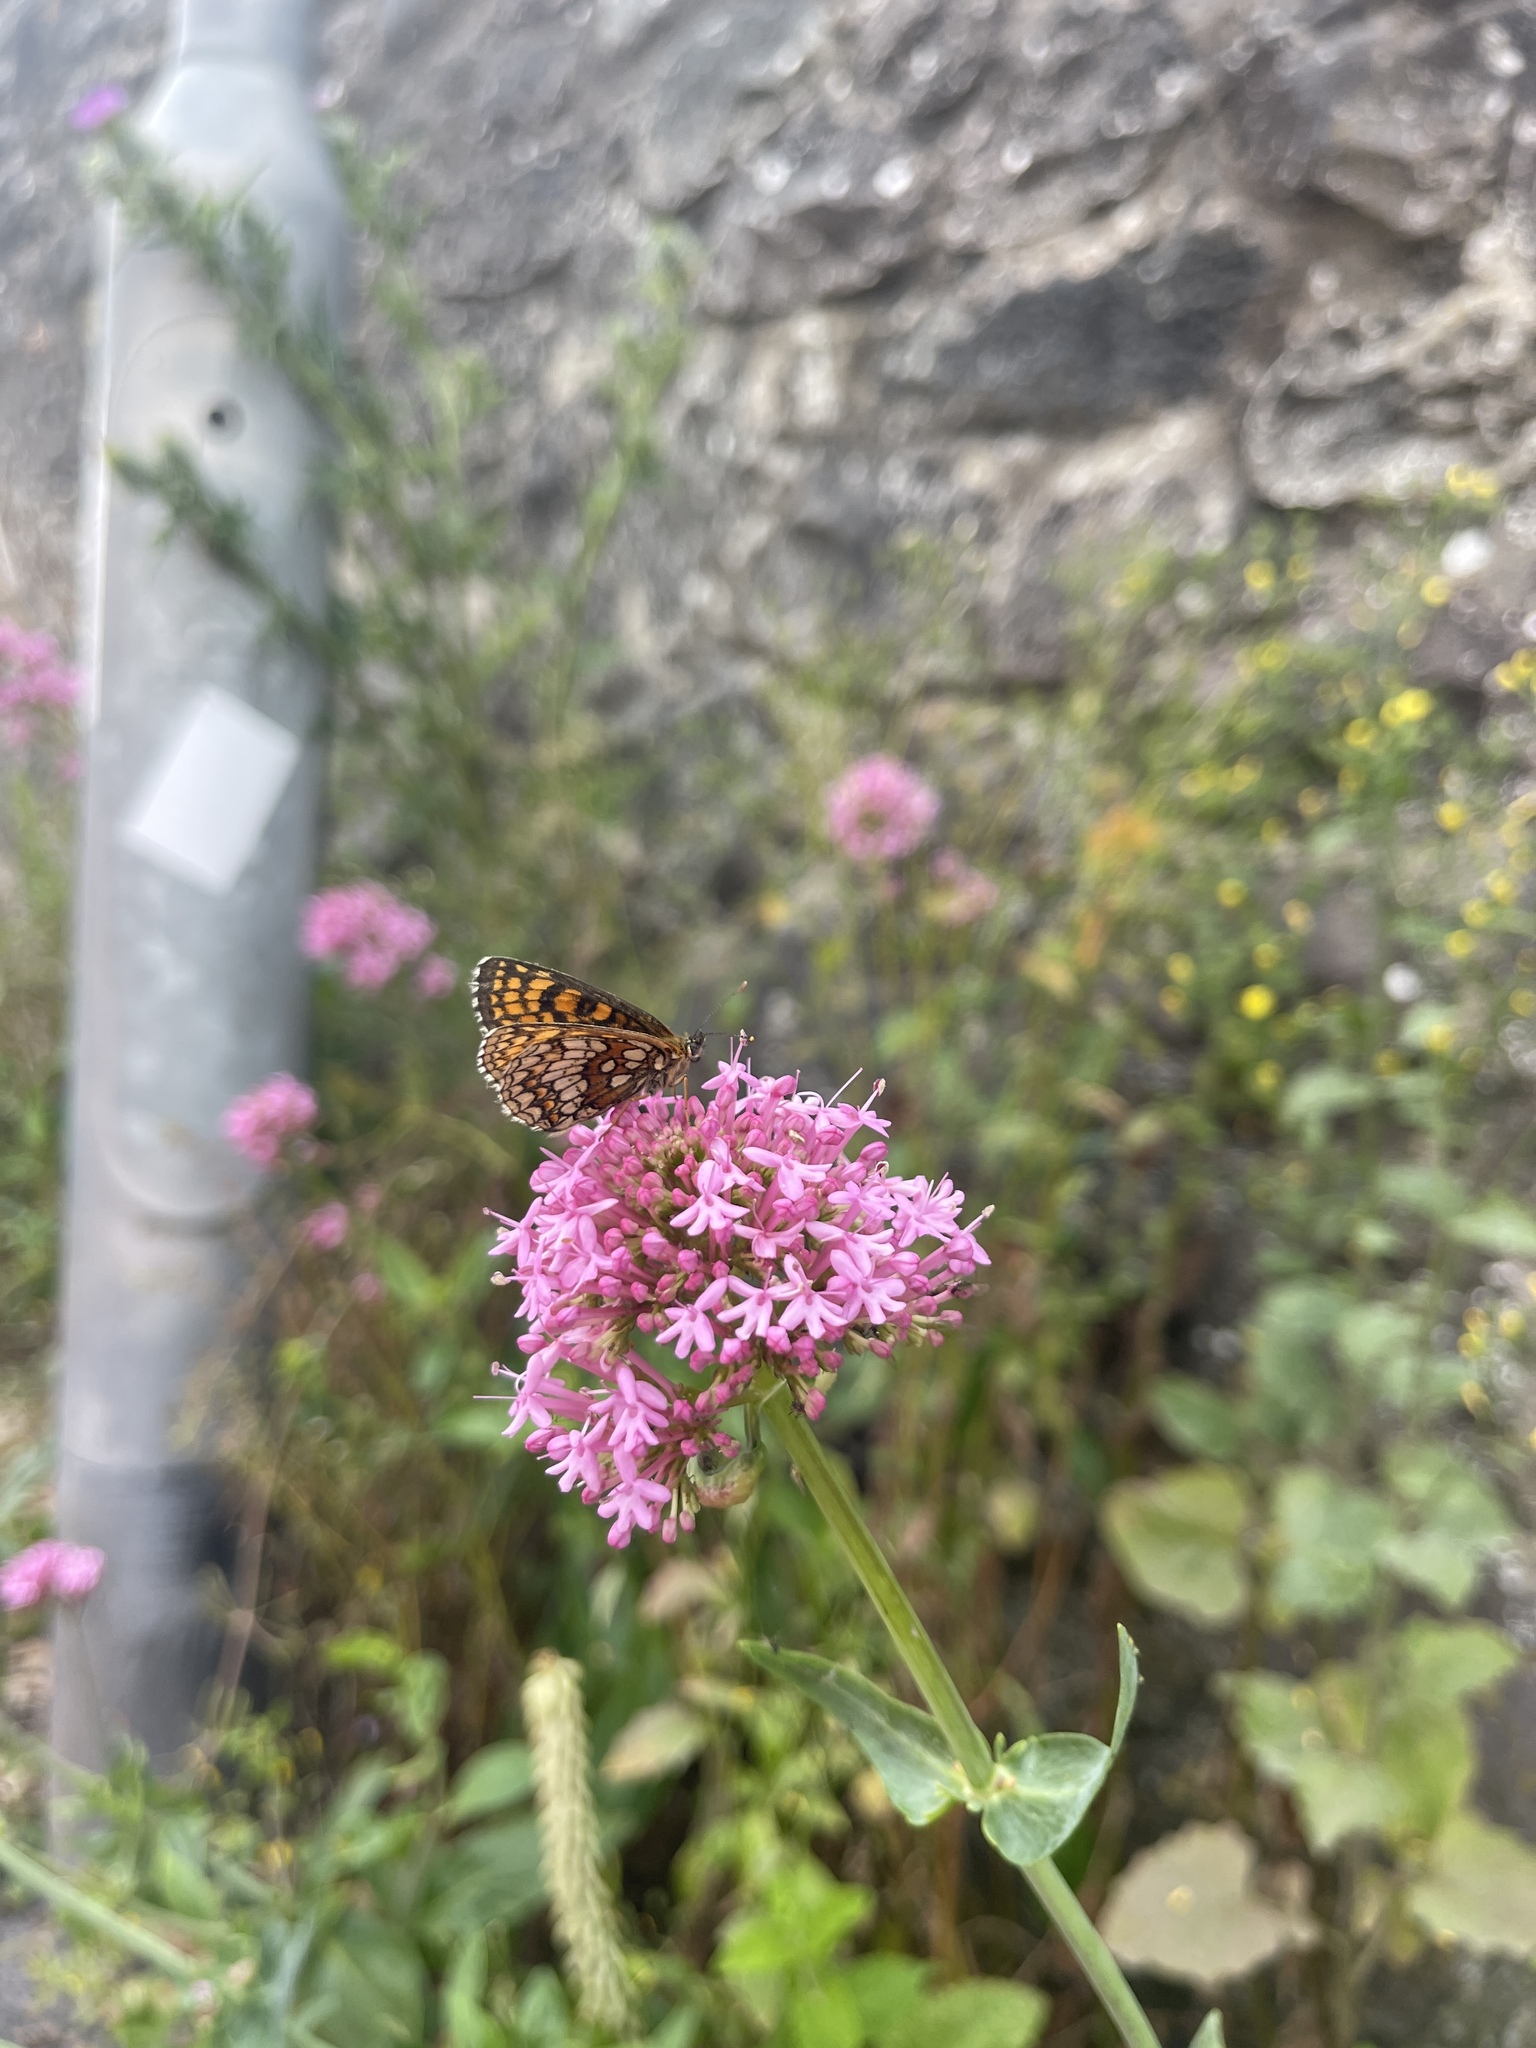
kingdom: Animalia
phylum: Arthropoda
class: Insecta
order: Lepidoptera
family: Nymphalidae
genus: Melitaea
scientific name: Melitaea athalia
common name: Heath fritillary
